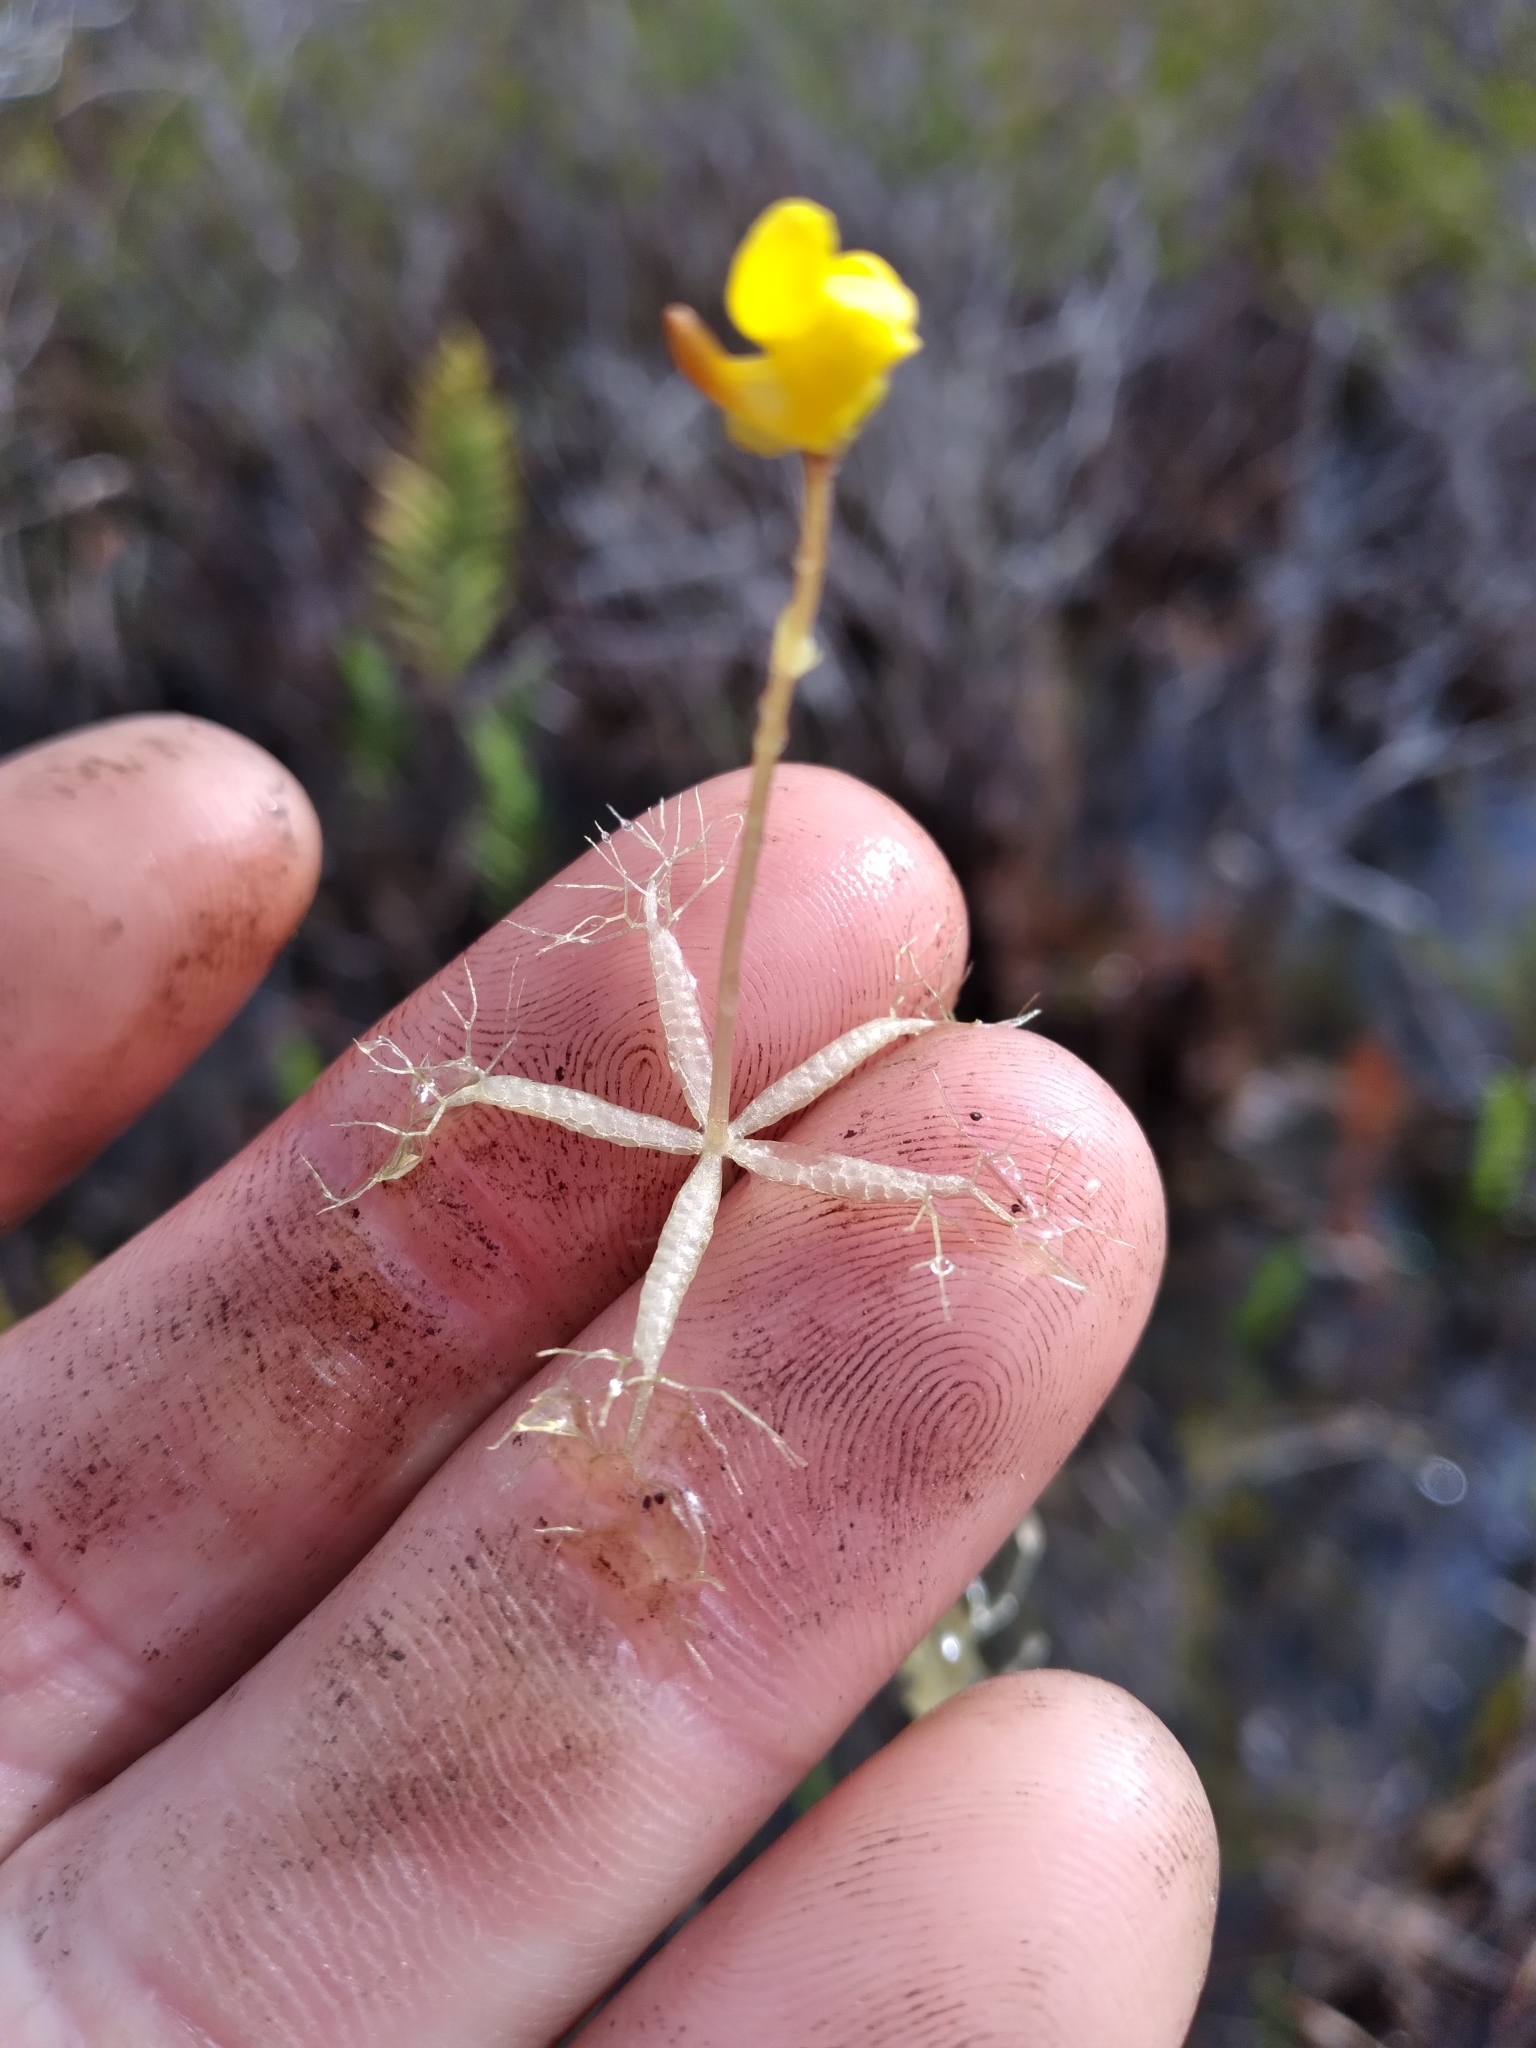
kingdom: Plantae
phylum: Tracheophyta
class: Magnoliopsida
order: Lamiales
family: Lentibulariaceae
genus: Utricularia
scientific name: Utricularia radiata
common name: Floating bladderwort
